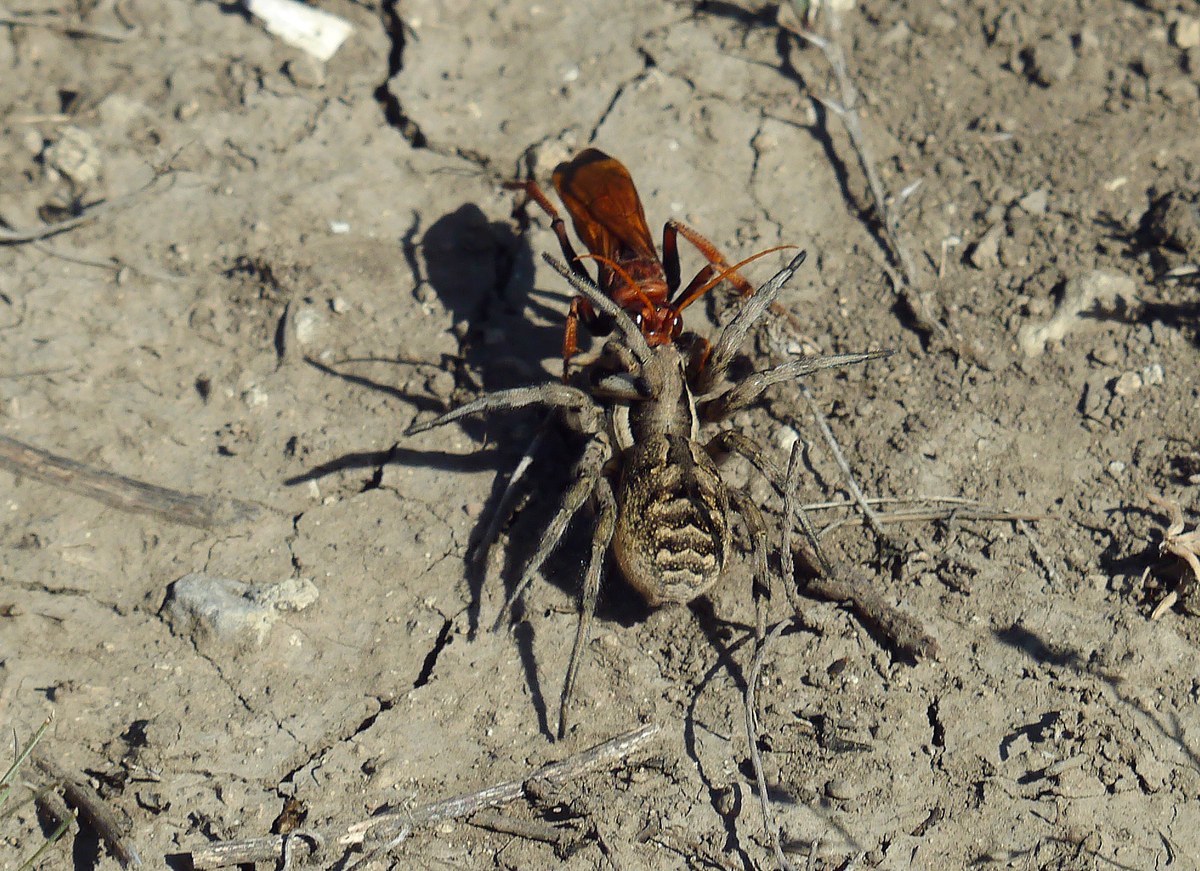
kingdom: Animalia
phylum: Arthropoda
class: Arachnida
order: Araneae
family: Lycosidae
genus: Lycosa
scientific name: Lycosa praegrandis
